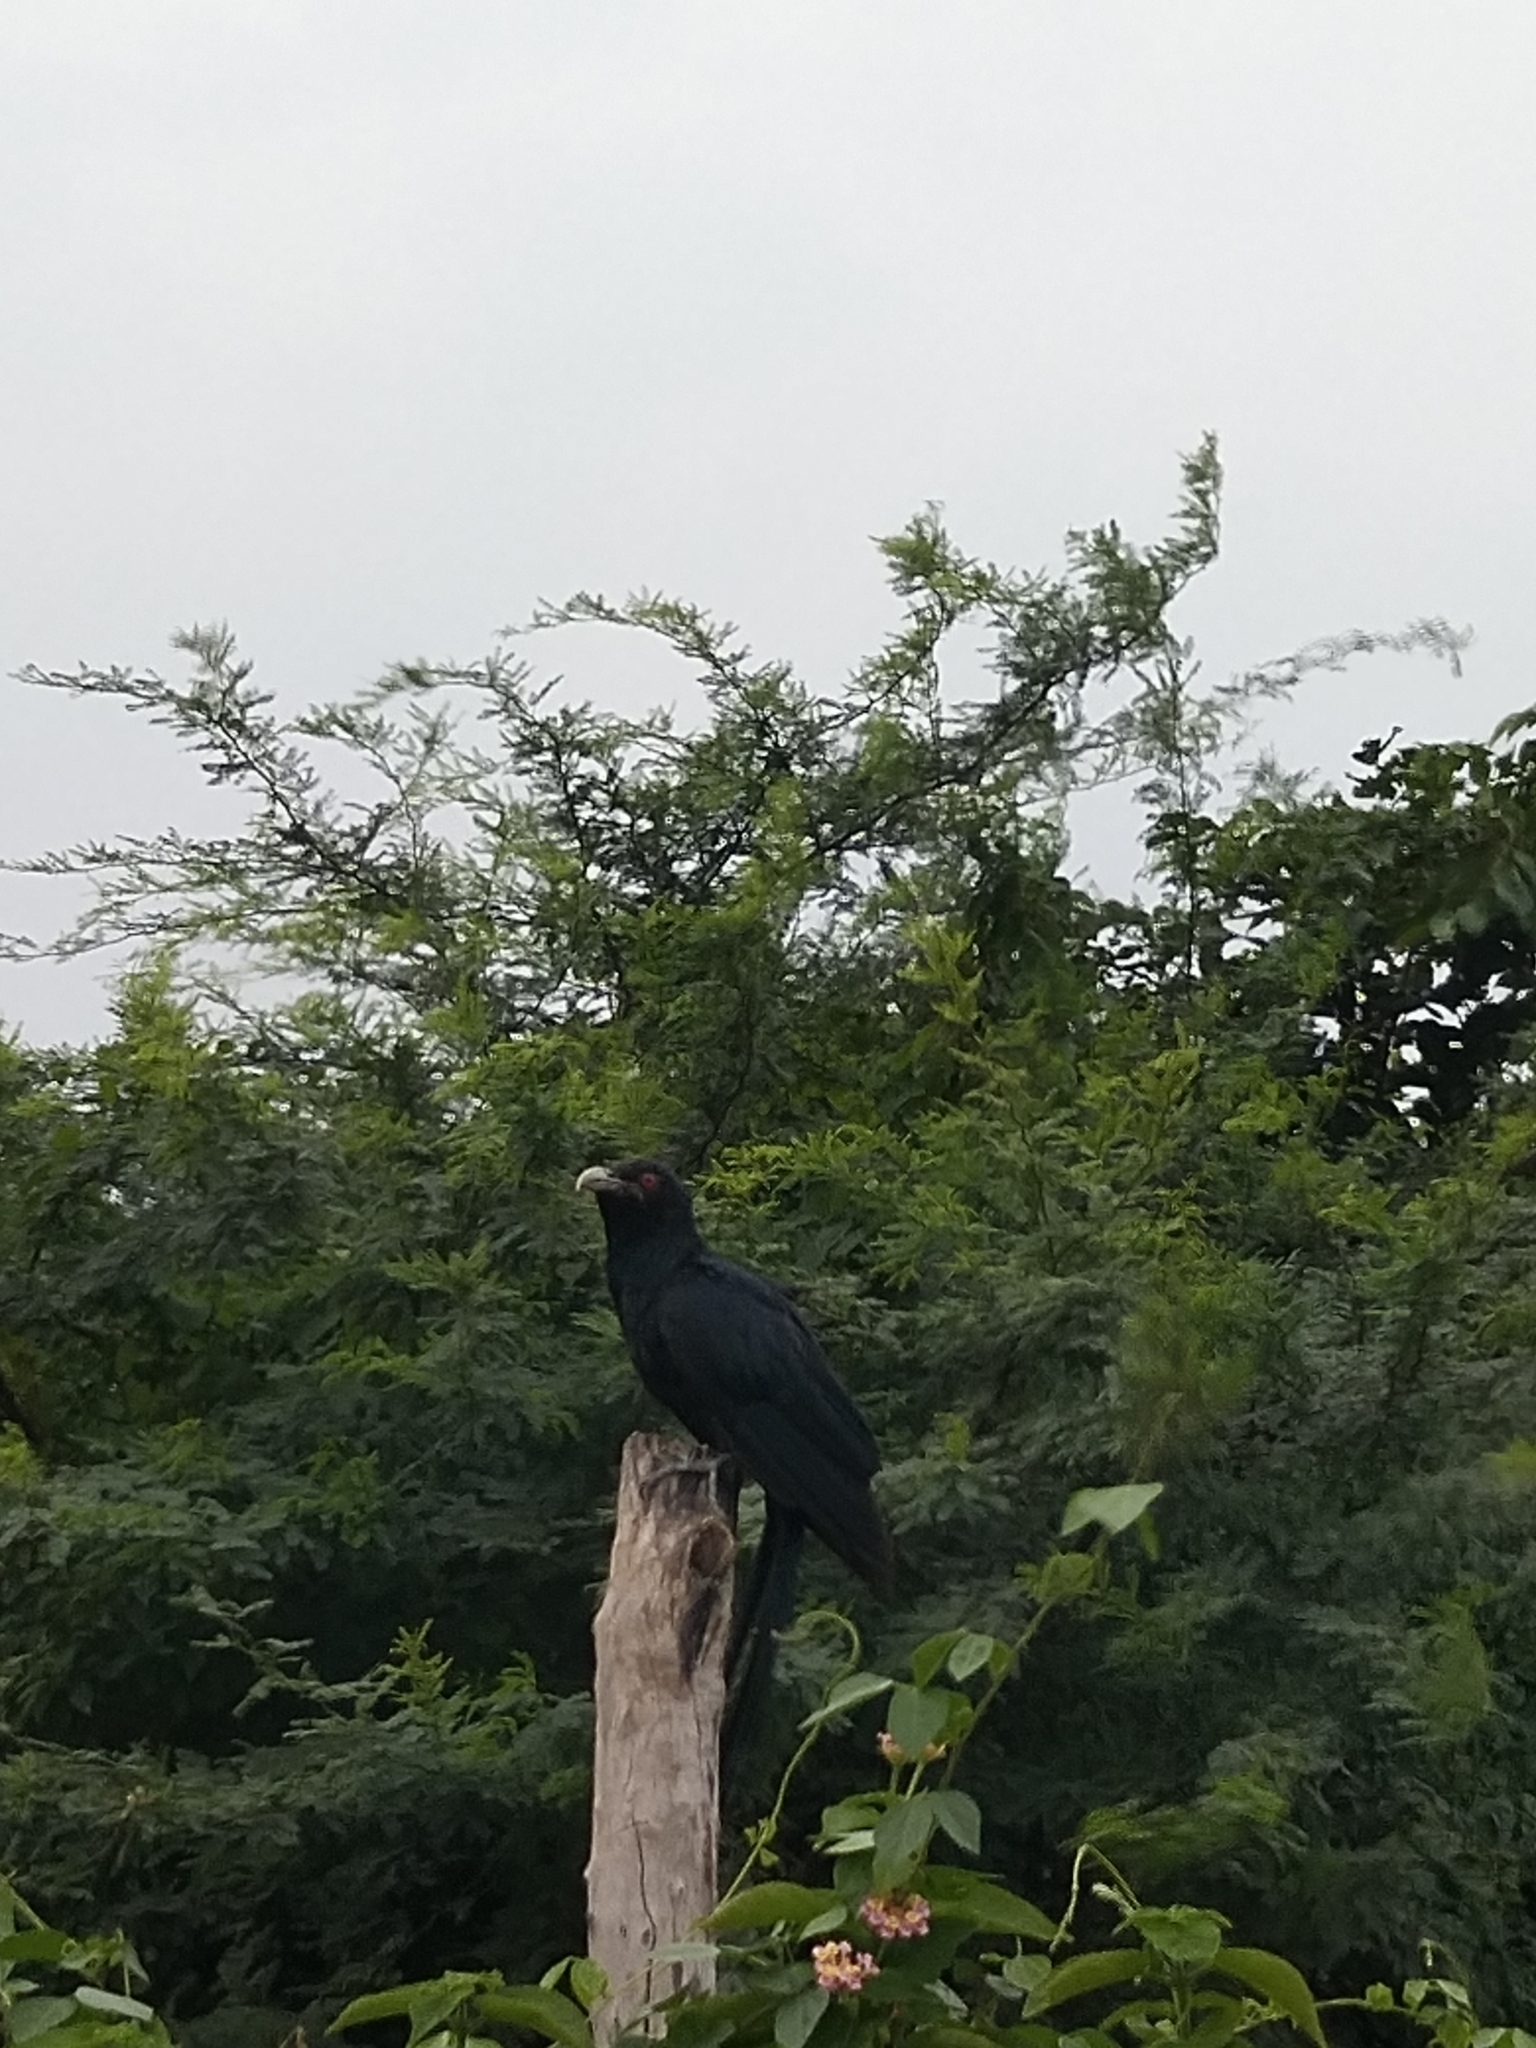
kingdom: Animalia
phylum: Chordata
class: Aves
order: Cuculiformes
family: Cuculidae
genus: Eudynamys
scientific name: Eudynamys scolopaceus
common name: Asian koel
